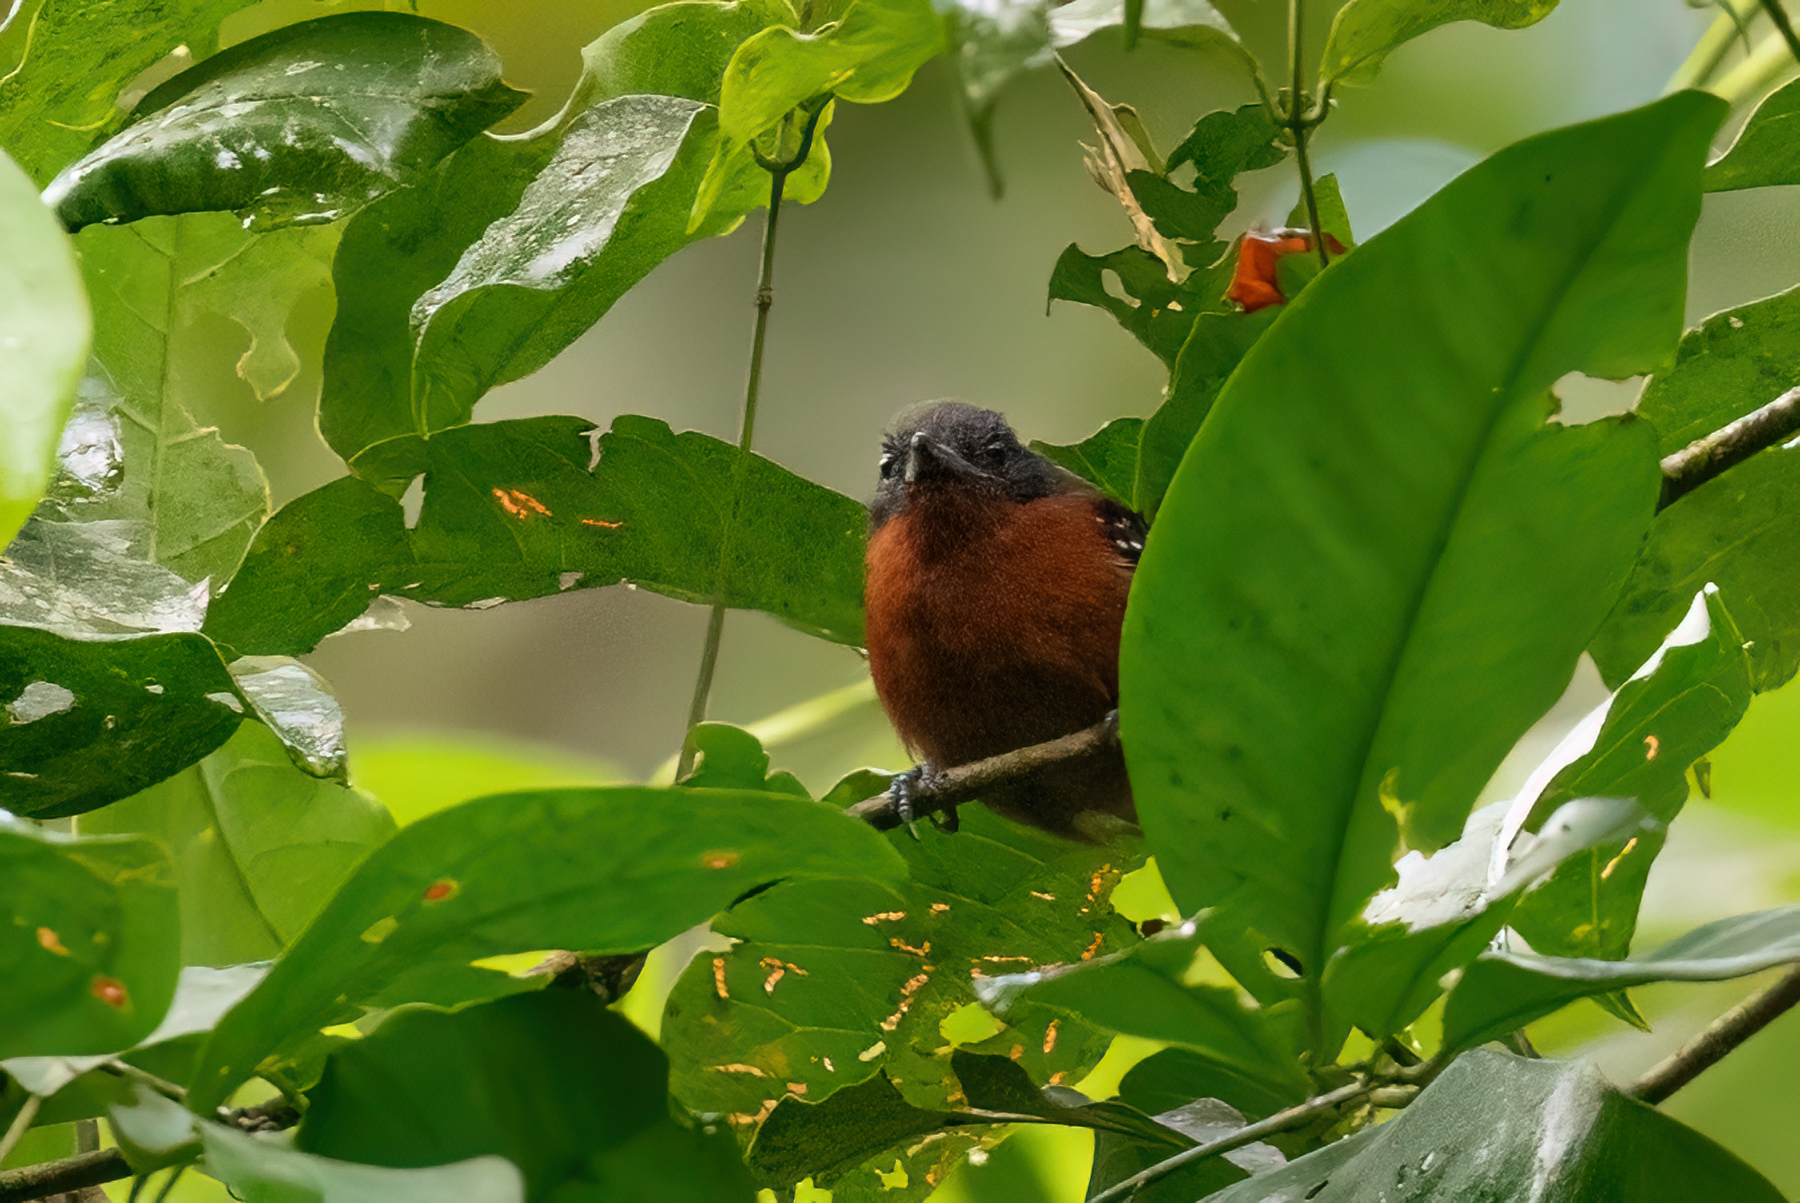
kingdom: Animalia
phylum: Chordata
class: Aves
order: Passeriformes
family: Thamnophilidae
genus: Microrhopias
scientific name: Microrhopias quixensis
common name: Dot-winged antwren
